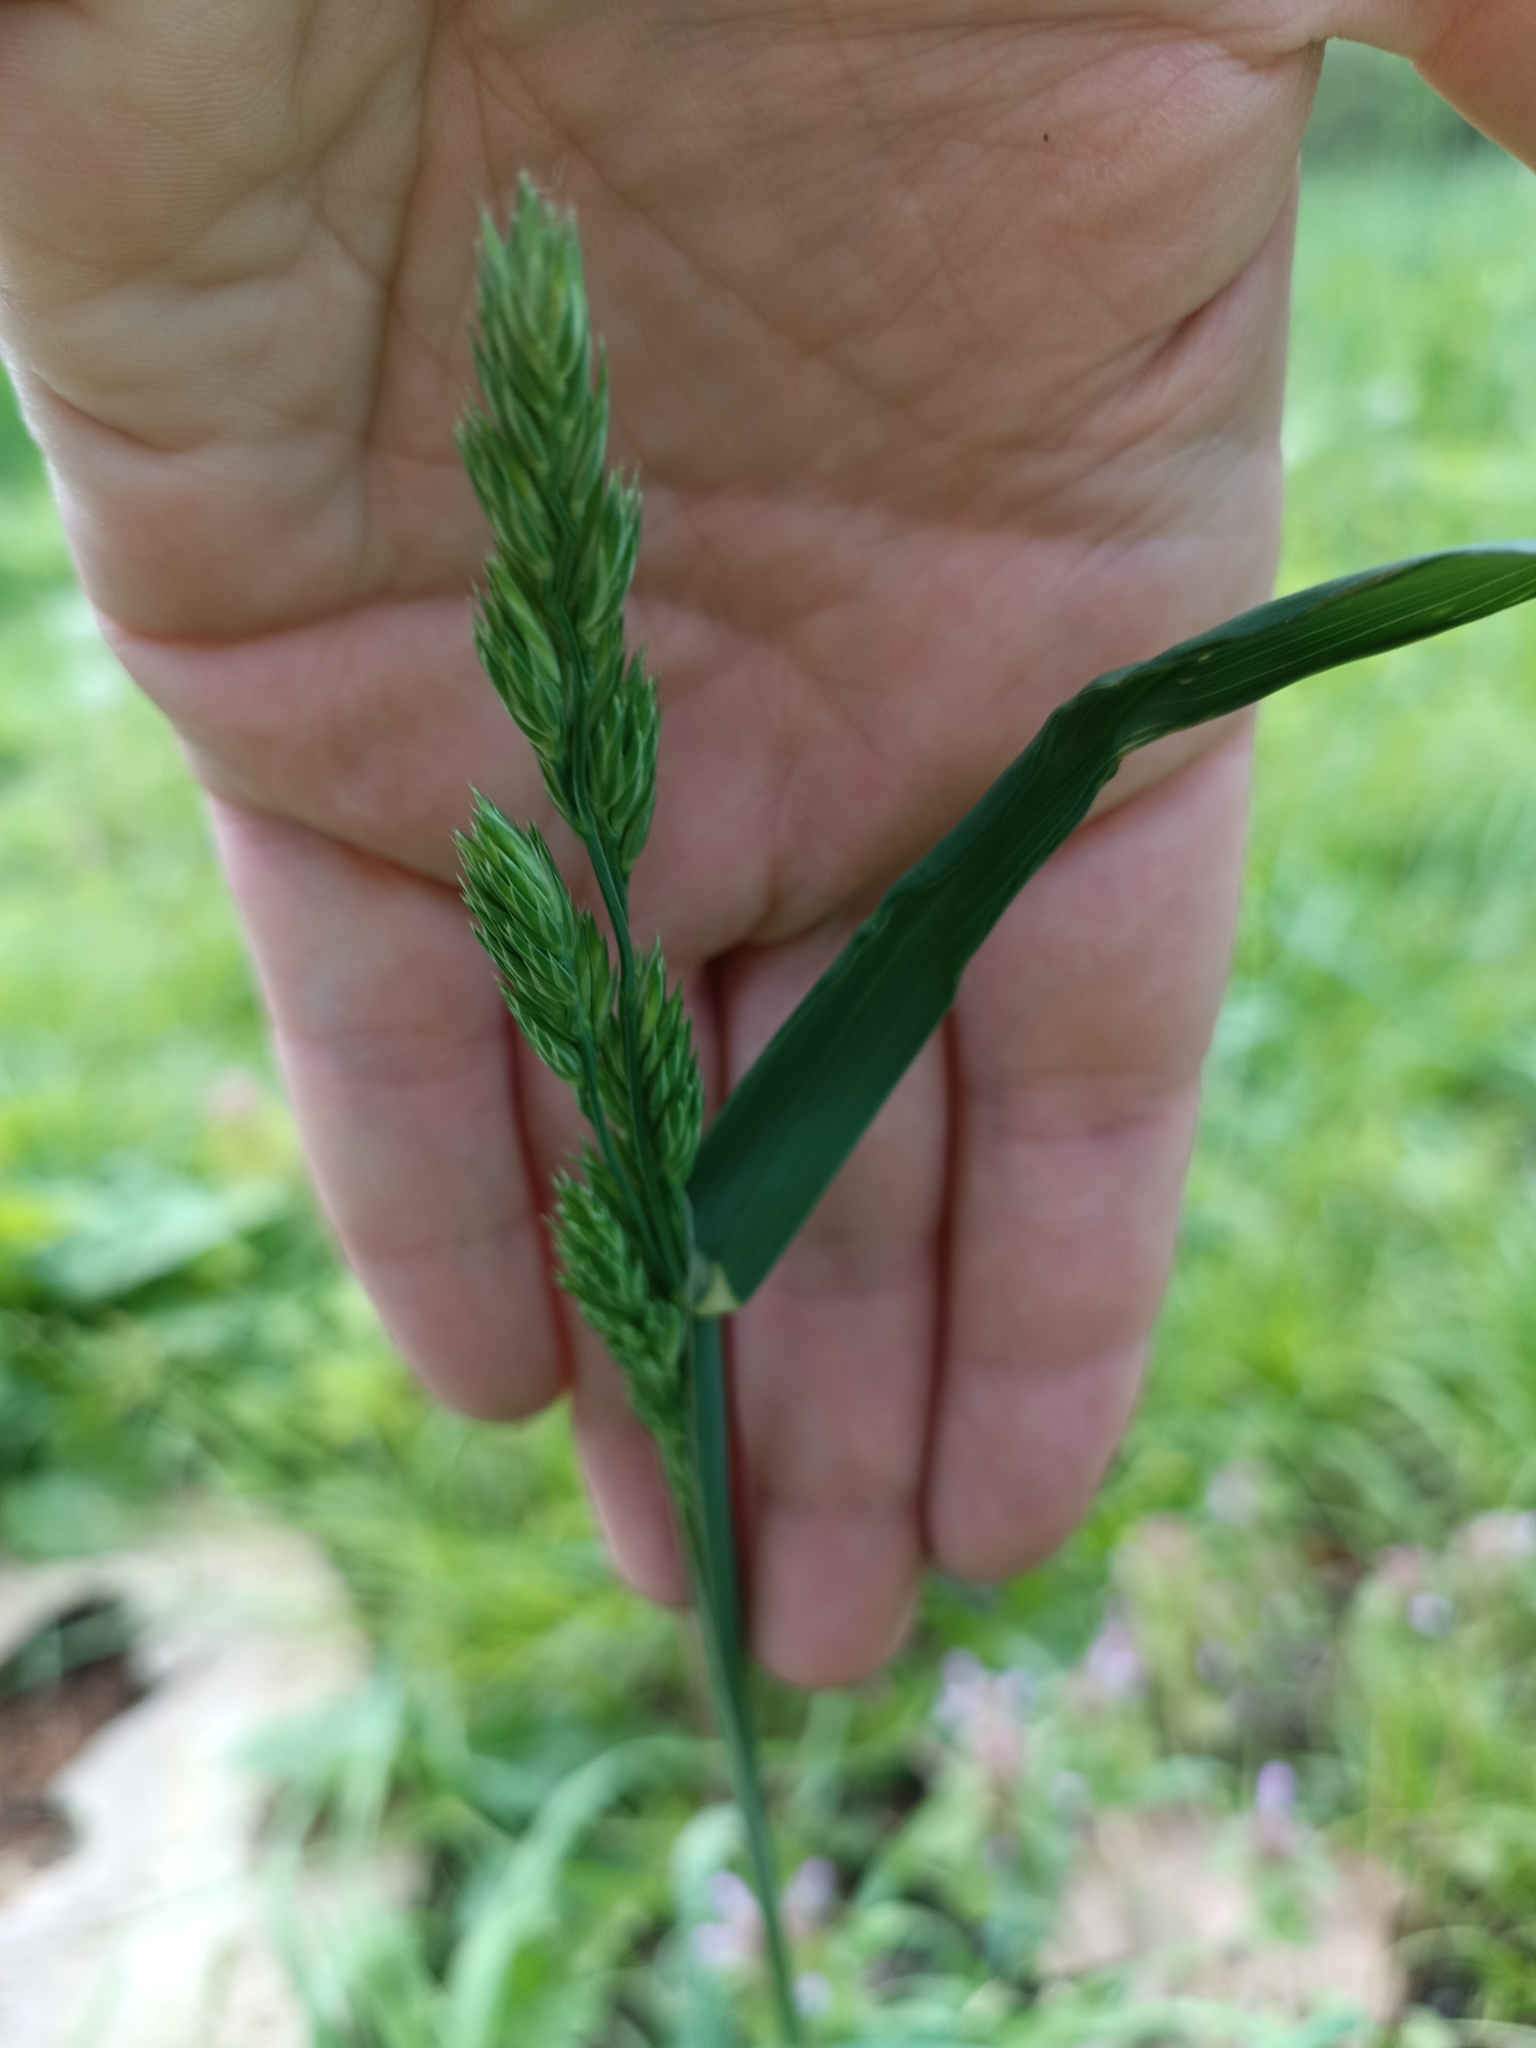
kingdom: Plantae
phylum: Tracheophyta
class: Liliopsida
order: Poales
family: Poaceae
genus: Dactylis
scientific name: Dactylis glomerata
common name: Orchardgrass
